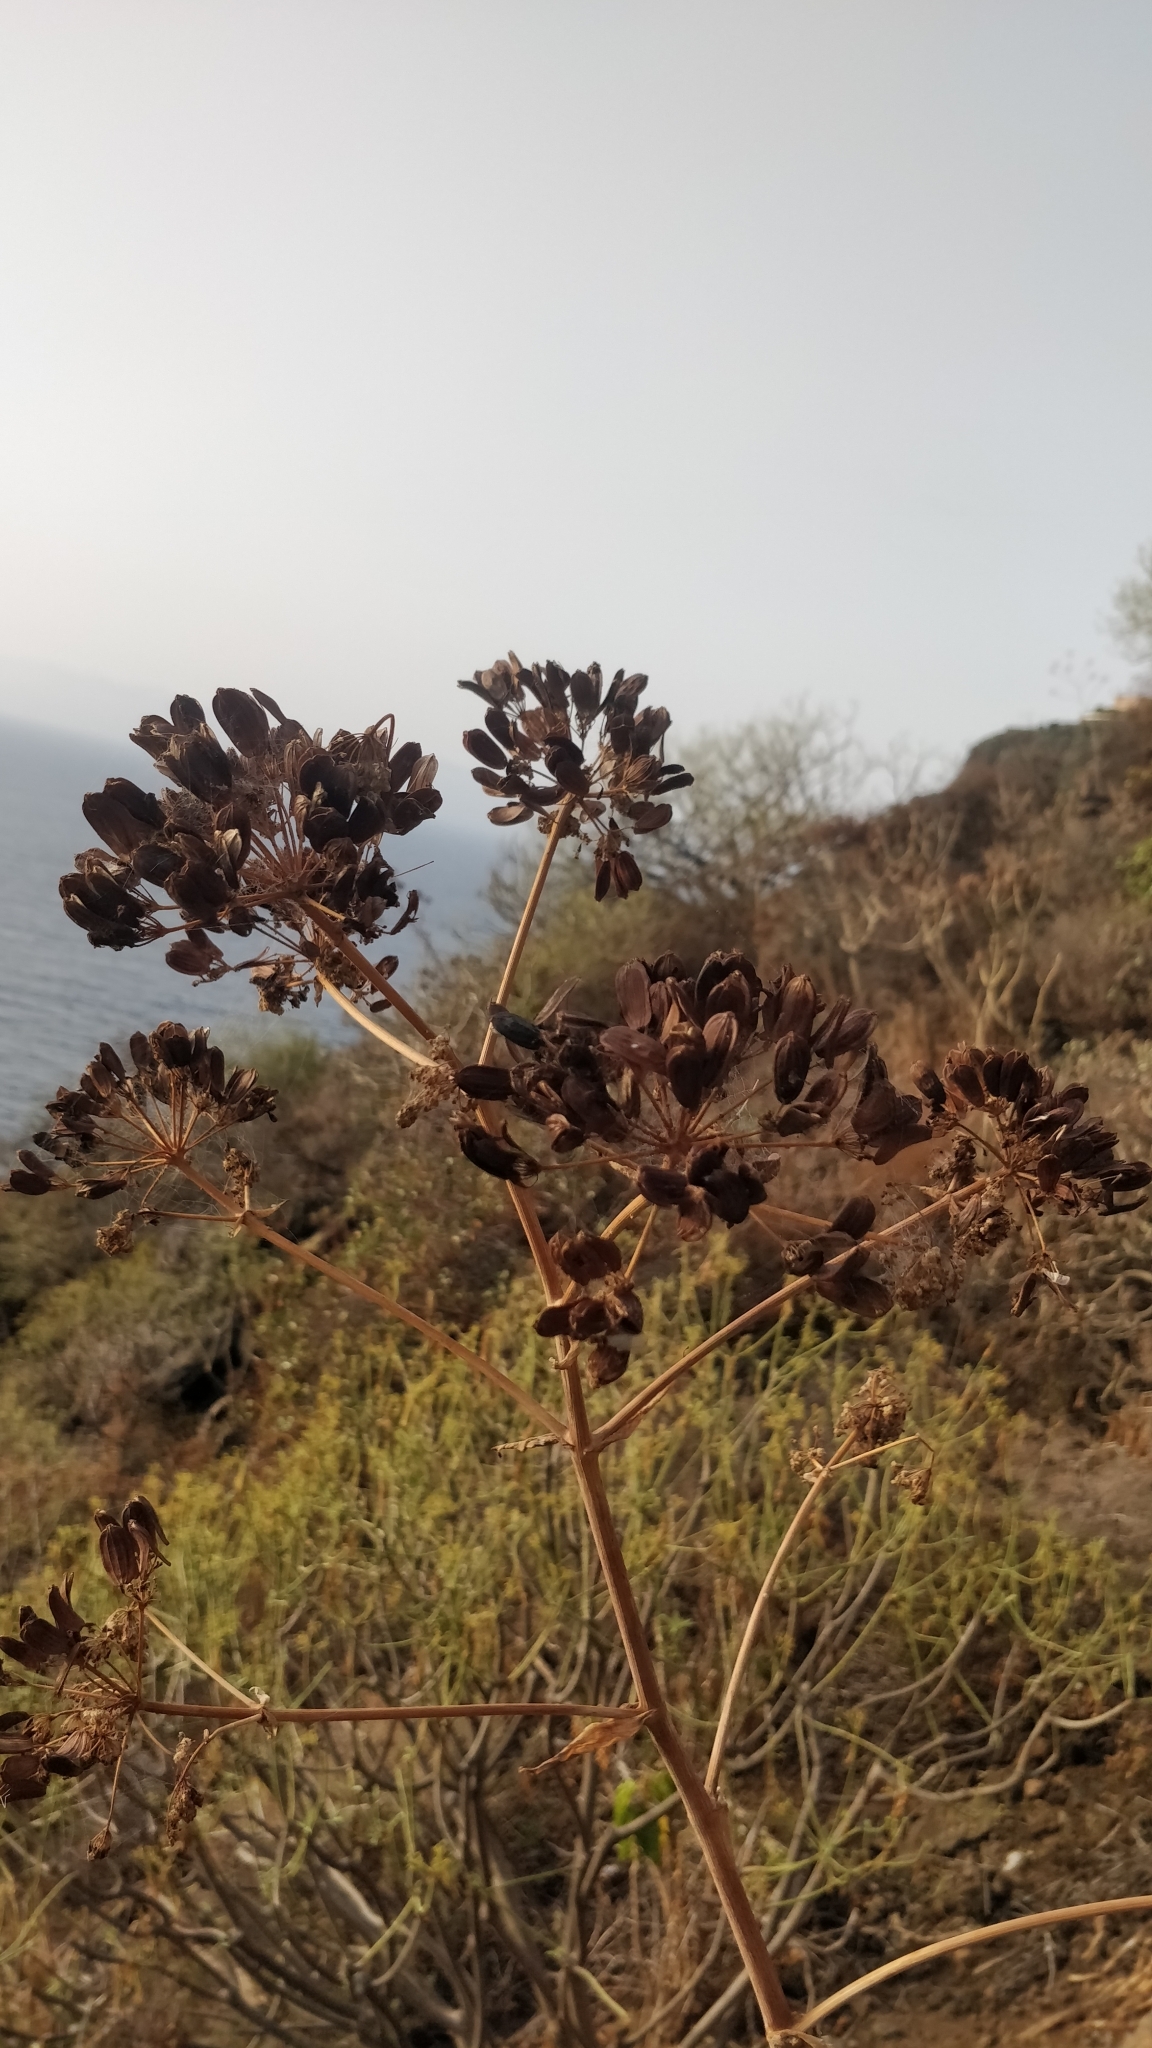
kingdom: Plantae
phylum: Tracheophyta
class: Magnoliopsida
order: Apiales
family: Apiaceae
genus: Ferula
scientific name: Ferula communis
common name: Giant fennel
